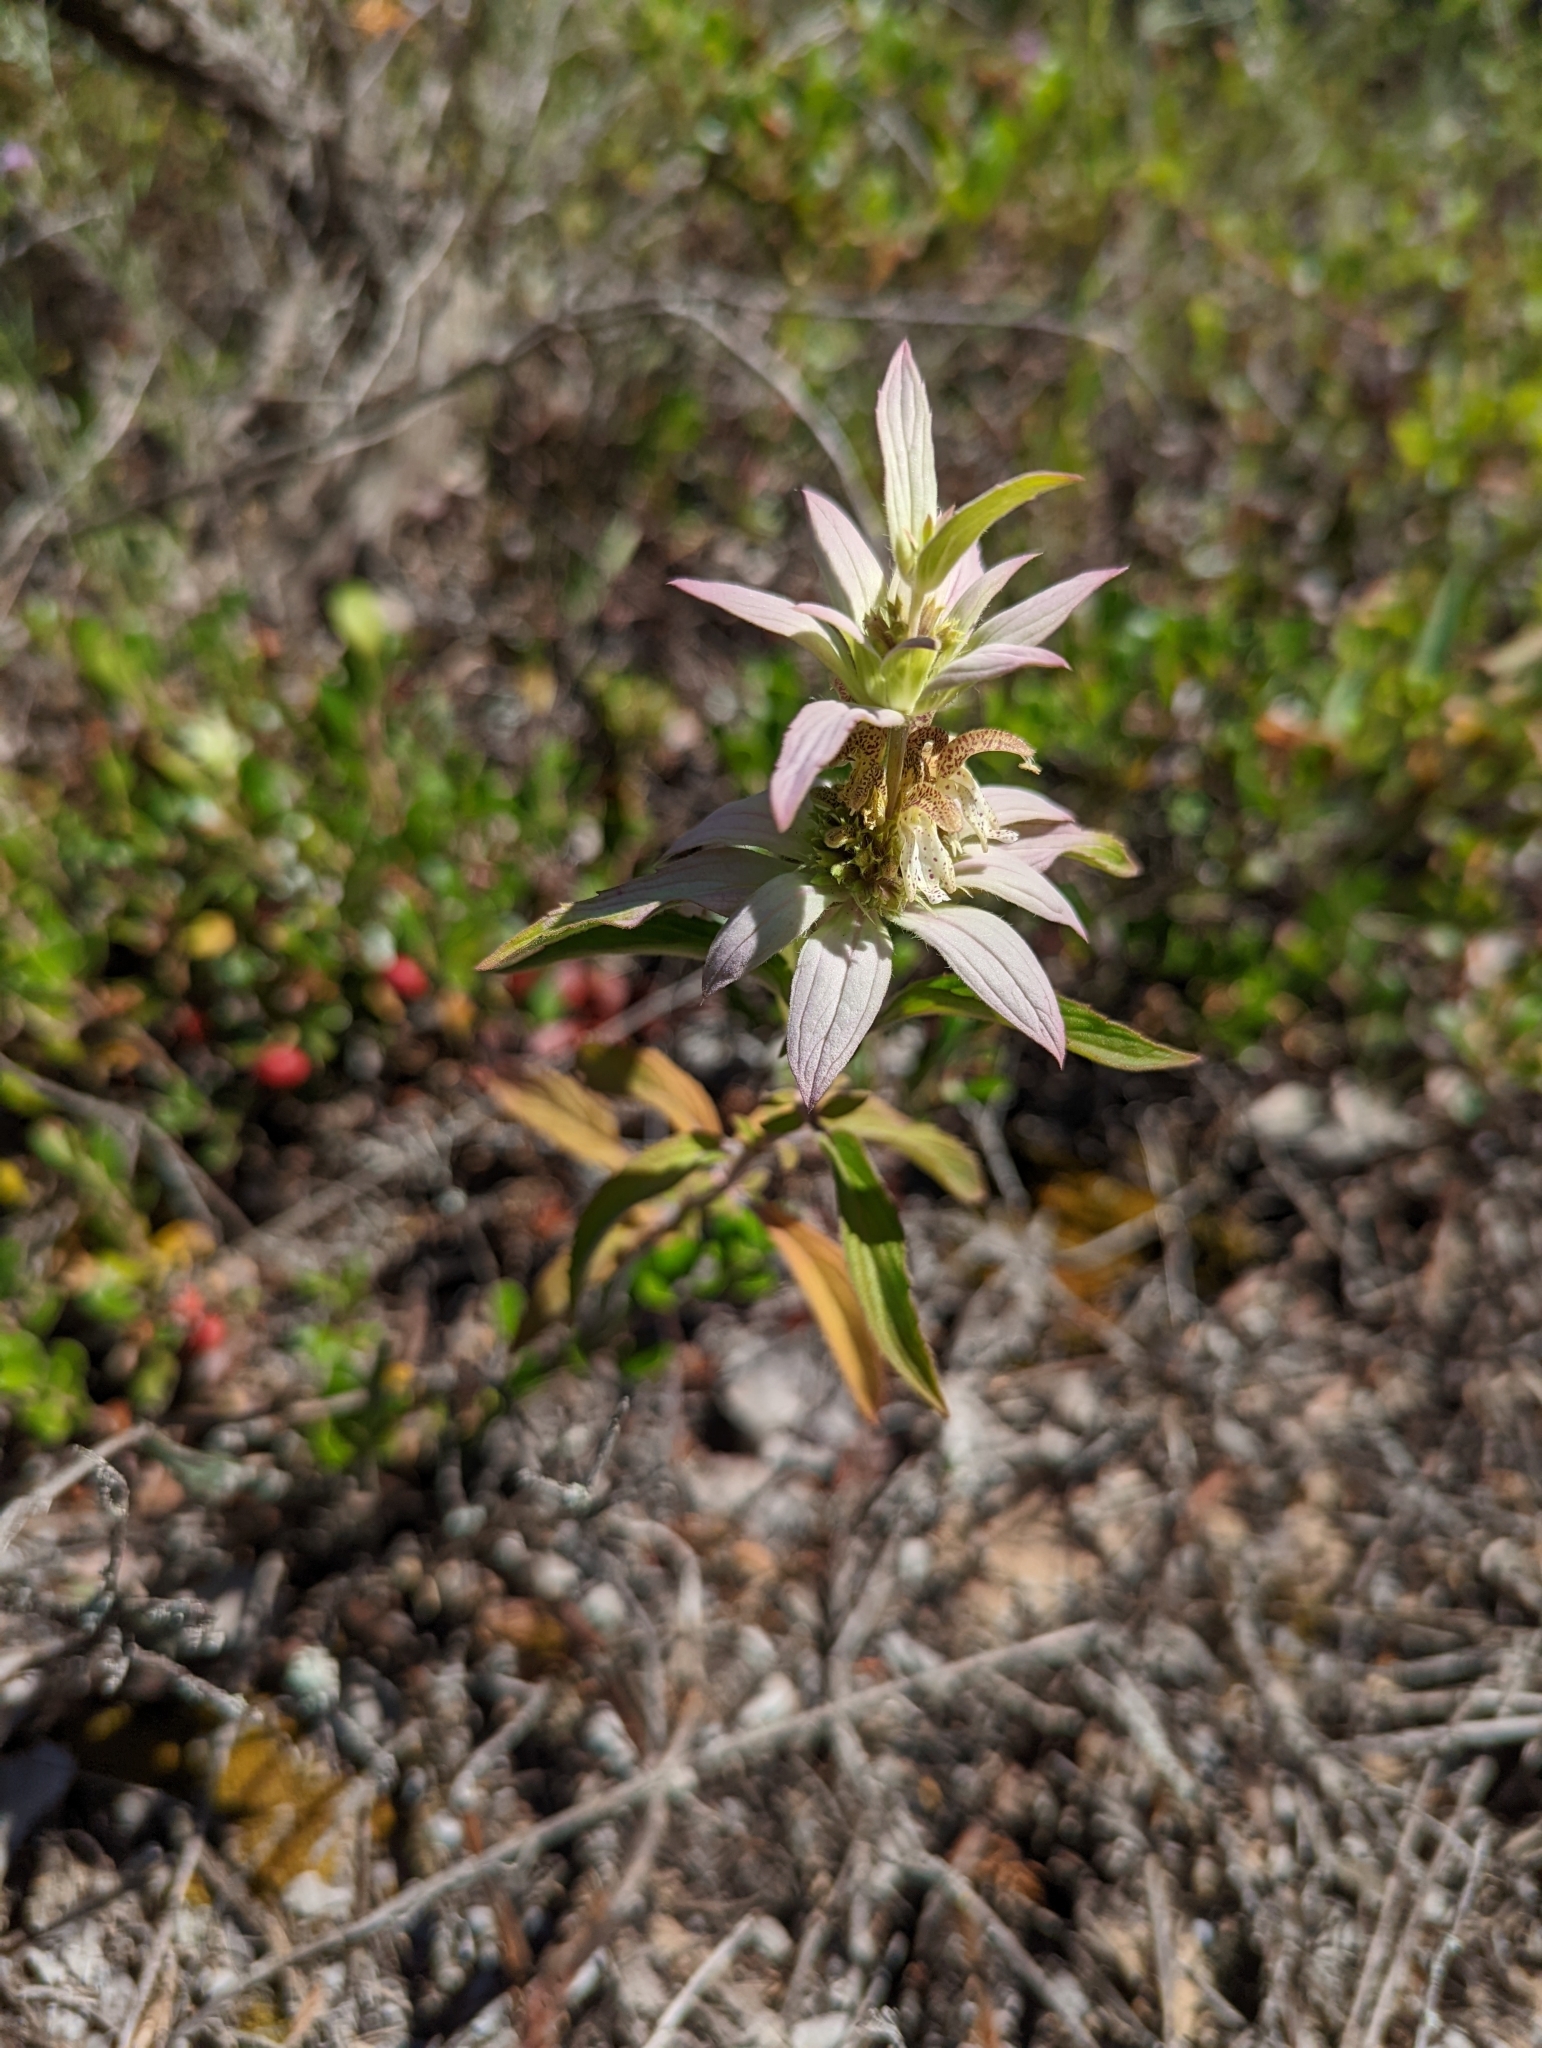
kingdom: Plantae
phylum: Tracheophyta
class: Magnoliopsida
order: Lamiales
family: Lamiaceae
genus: Monarda
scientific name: Monarda punctata
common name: Dotted monarda
